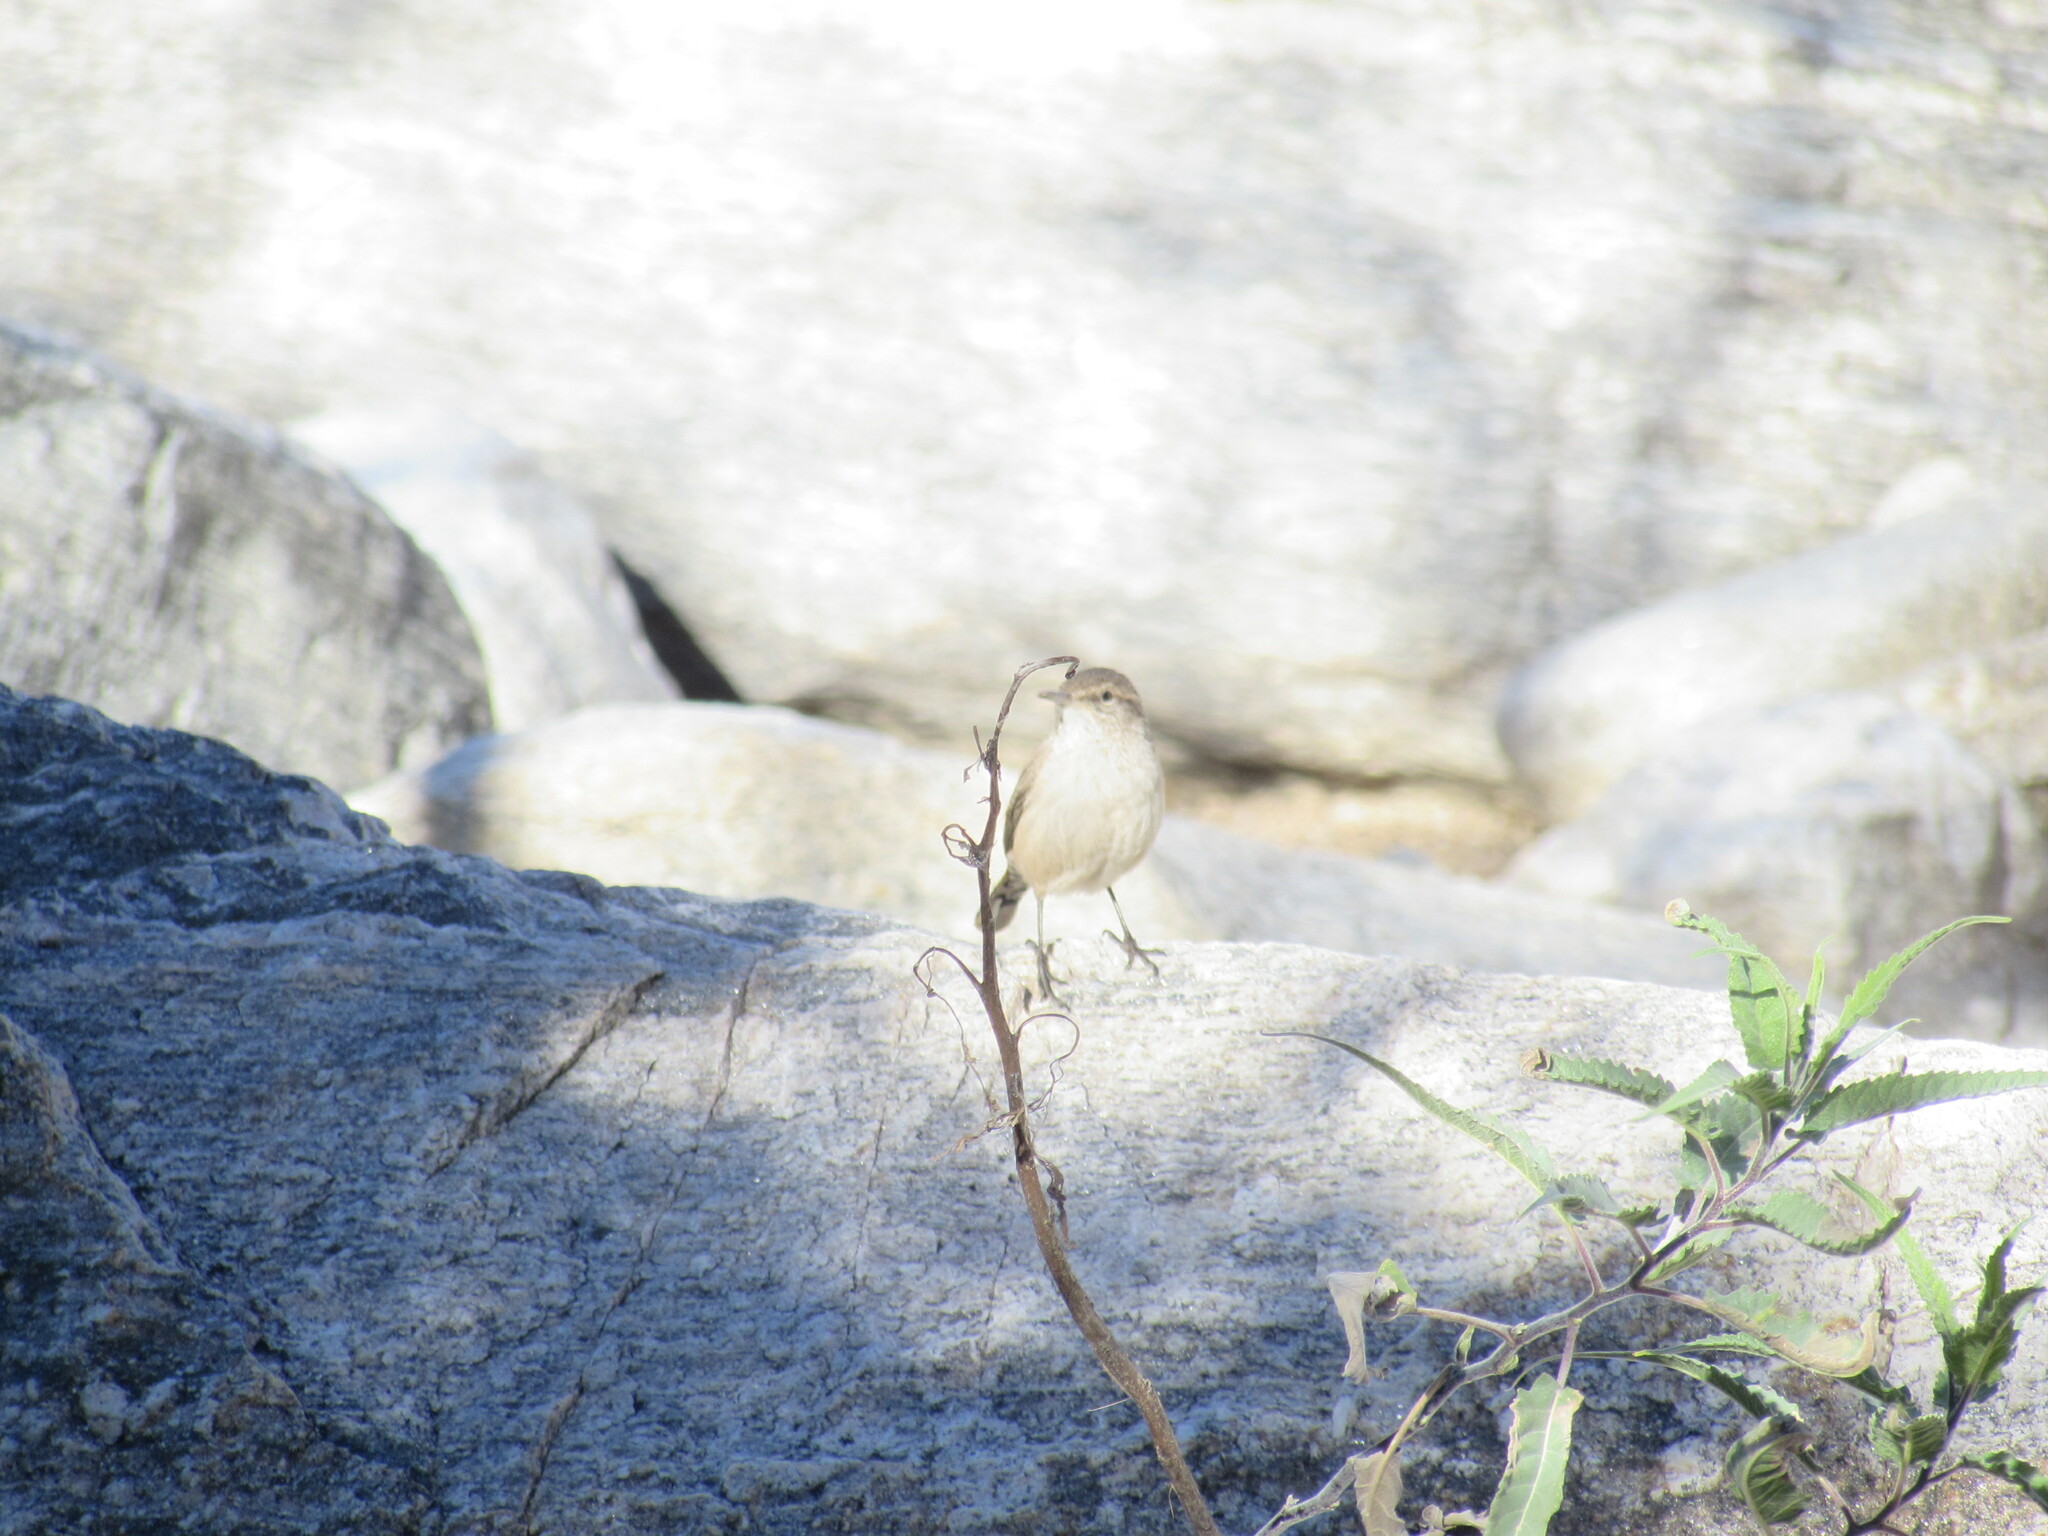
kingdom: Animalia
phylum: Chordata
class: Aves
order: Passeriformes
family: Troglodytidae
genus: Salpinctes
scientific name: Salpinctes obsoletus
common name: Rock wren
